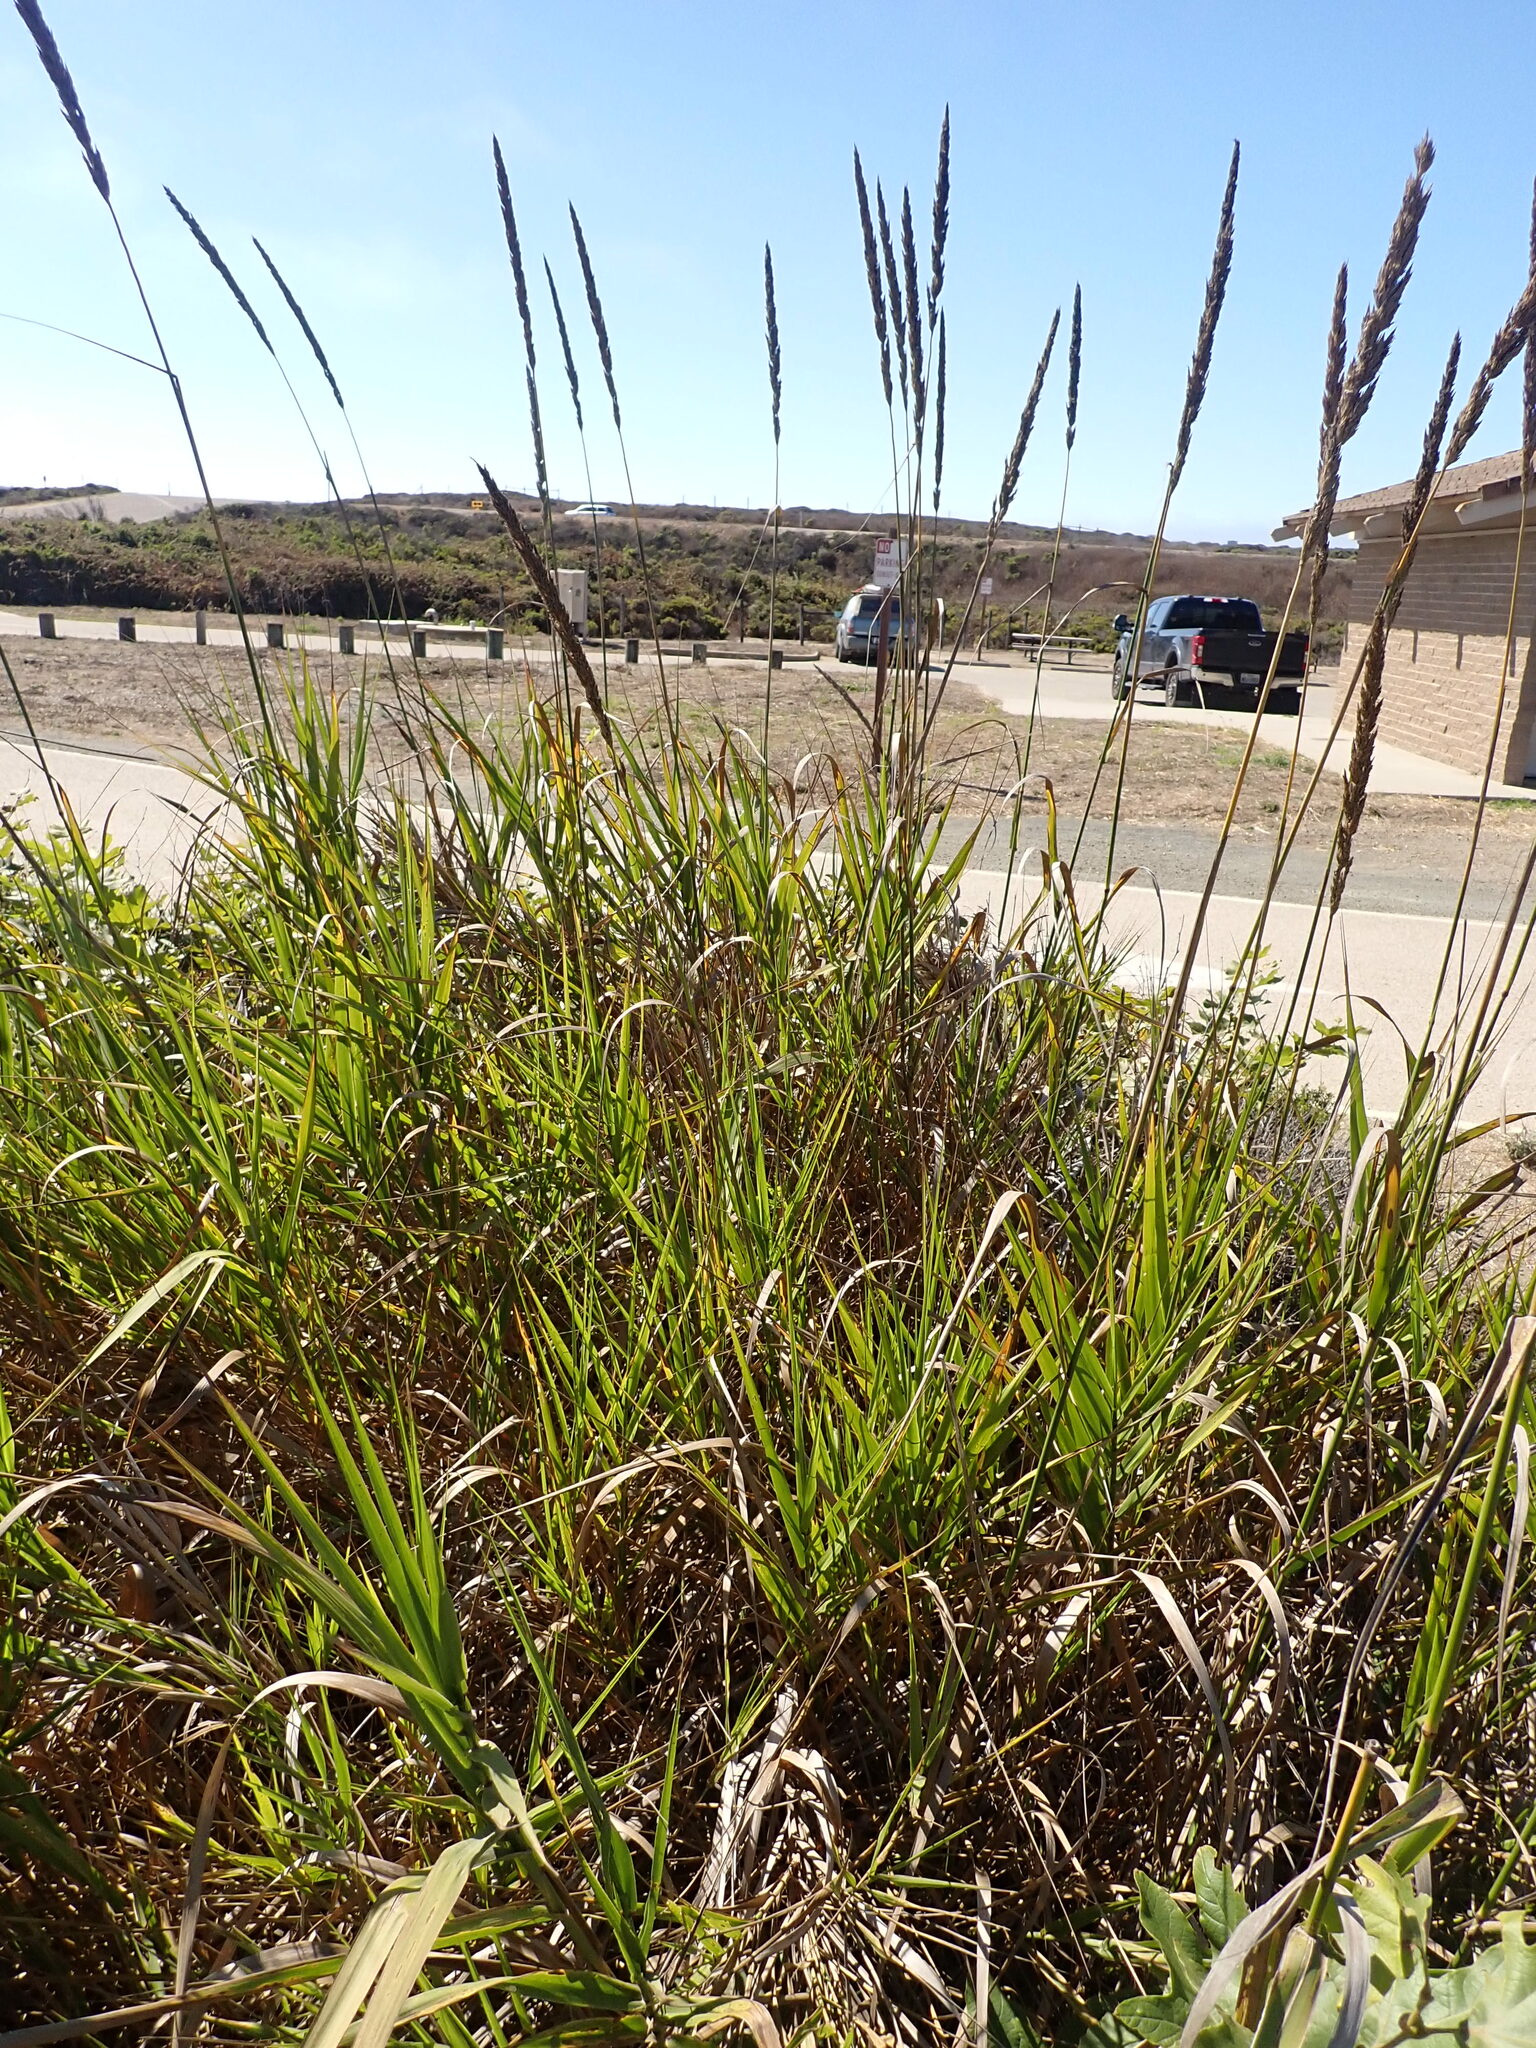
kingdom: Plantae
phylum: Tracheophyta
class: Liliopsida
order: Poales
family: Poaceae
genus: Leymus
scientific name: Leymus condensatus
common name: Giant wild rye
